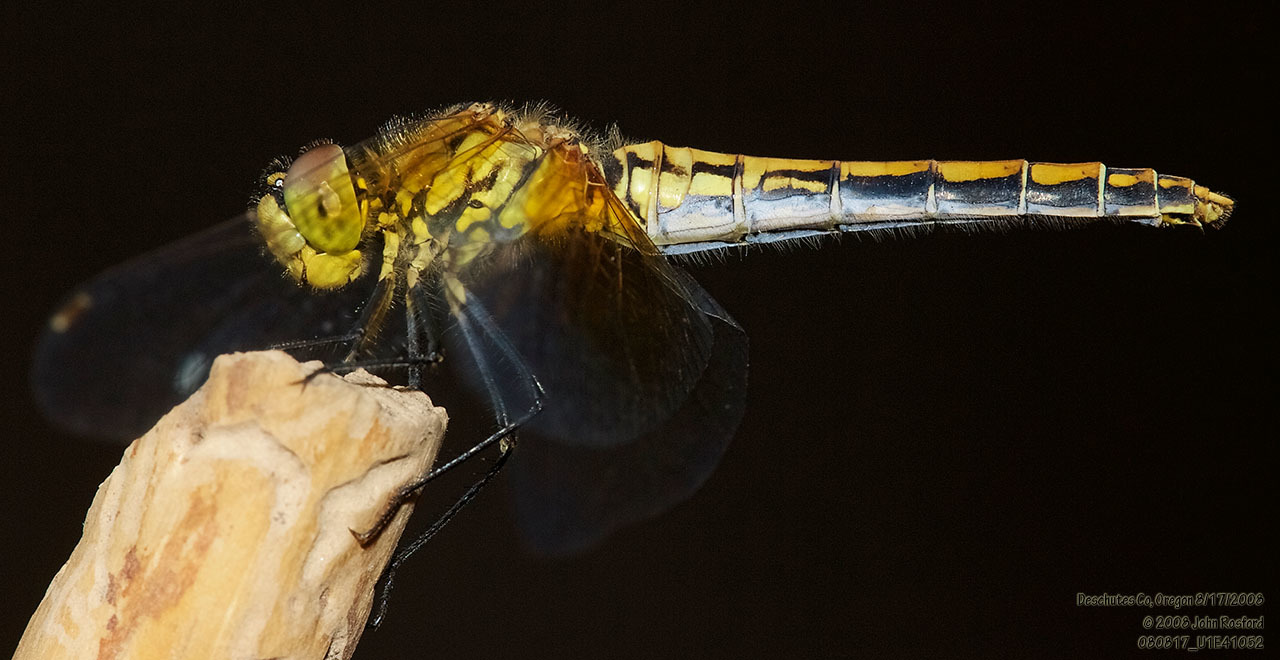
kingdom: Animalia
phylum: Arthropoda
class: Insecta
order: Odonata
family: Libellulidae
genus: Sympetrum
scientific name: Sympetrum semicinctum
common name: Band-winged meadowhawk
